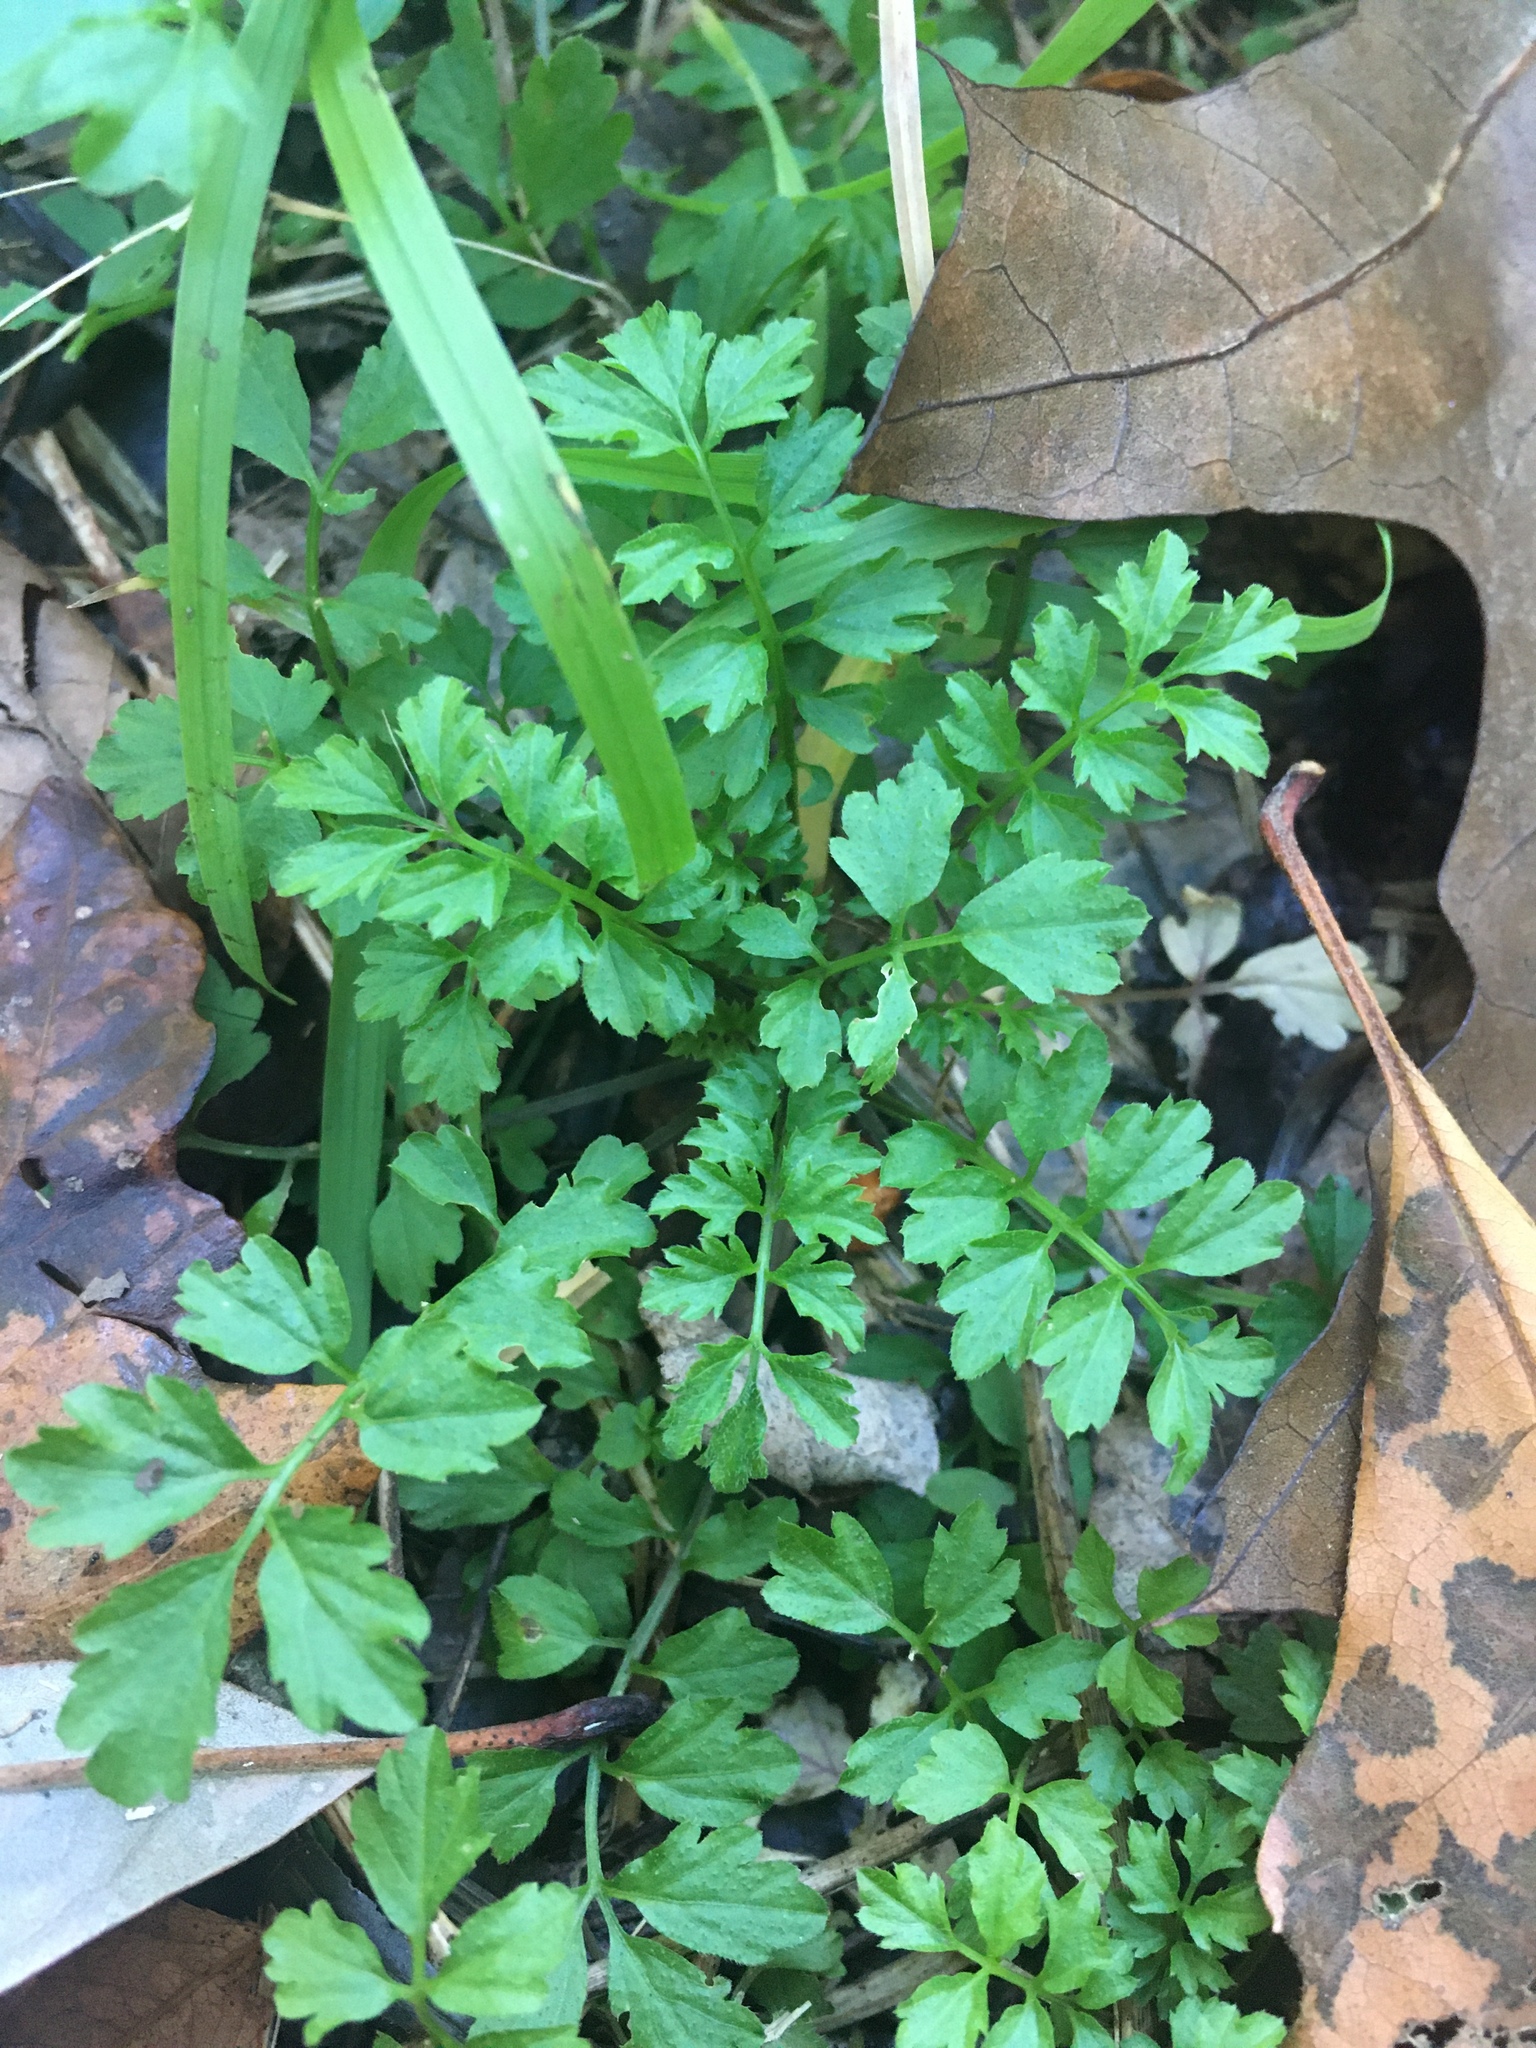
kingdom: Plantae
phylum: Tracheophyta
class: Magnoliopsida
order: Brassicales
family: Brassicaceae
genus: Cardamine
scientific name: Cardamine impatiens
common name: Narrow-leaved bitter-cress
